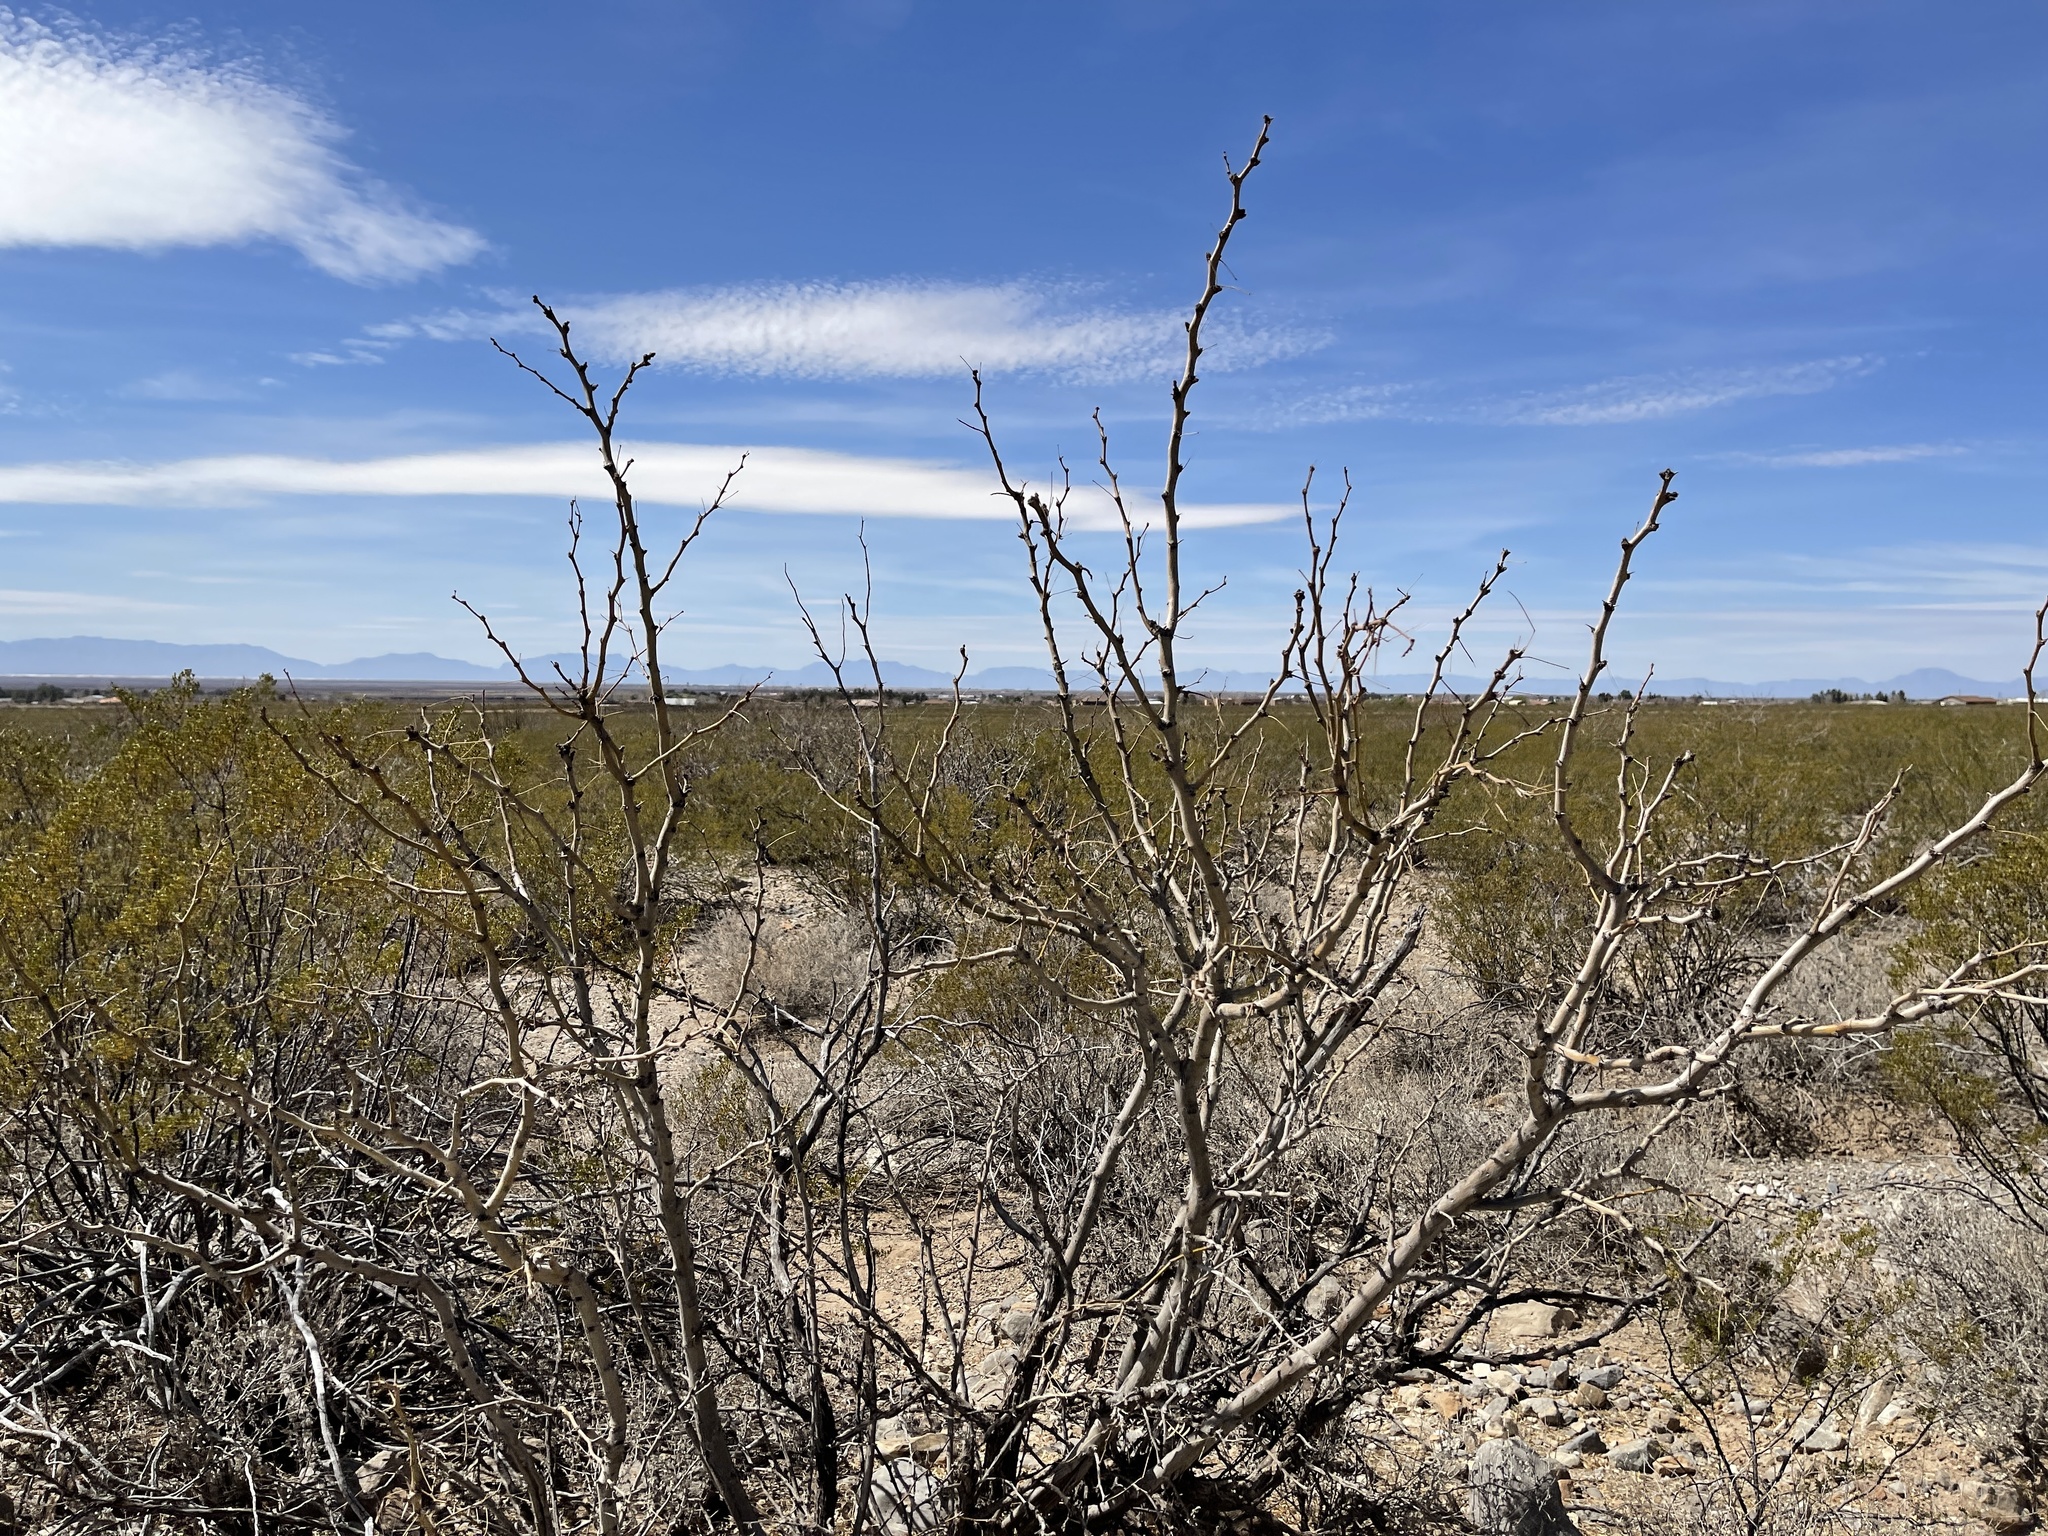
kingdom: Plantae
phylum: Tracheophyta
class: Magnoliopsida
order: Fabales
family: Fabaceae
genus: Prosopis
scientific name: Prosopis glandulosa
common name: Honey mesquite
